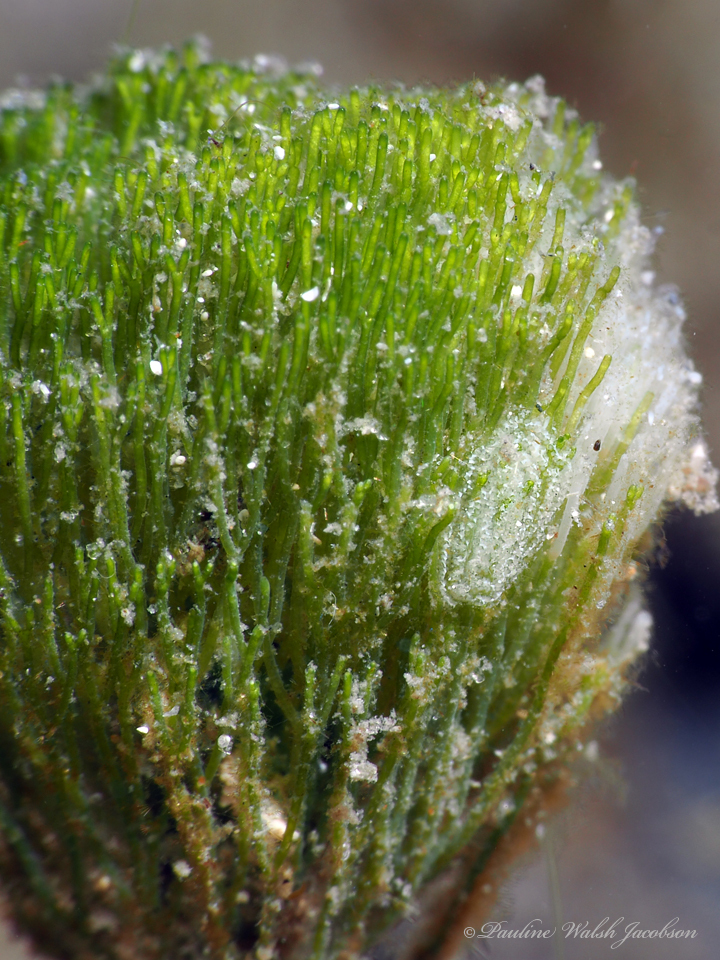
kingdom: Animalia
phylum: Mollusca
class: Gastropoda
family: Plakobranchidae
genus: Elysia
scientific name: Elysia papillosa
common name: Papillose elysia
